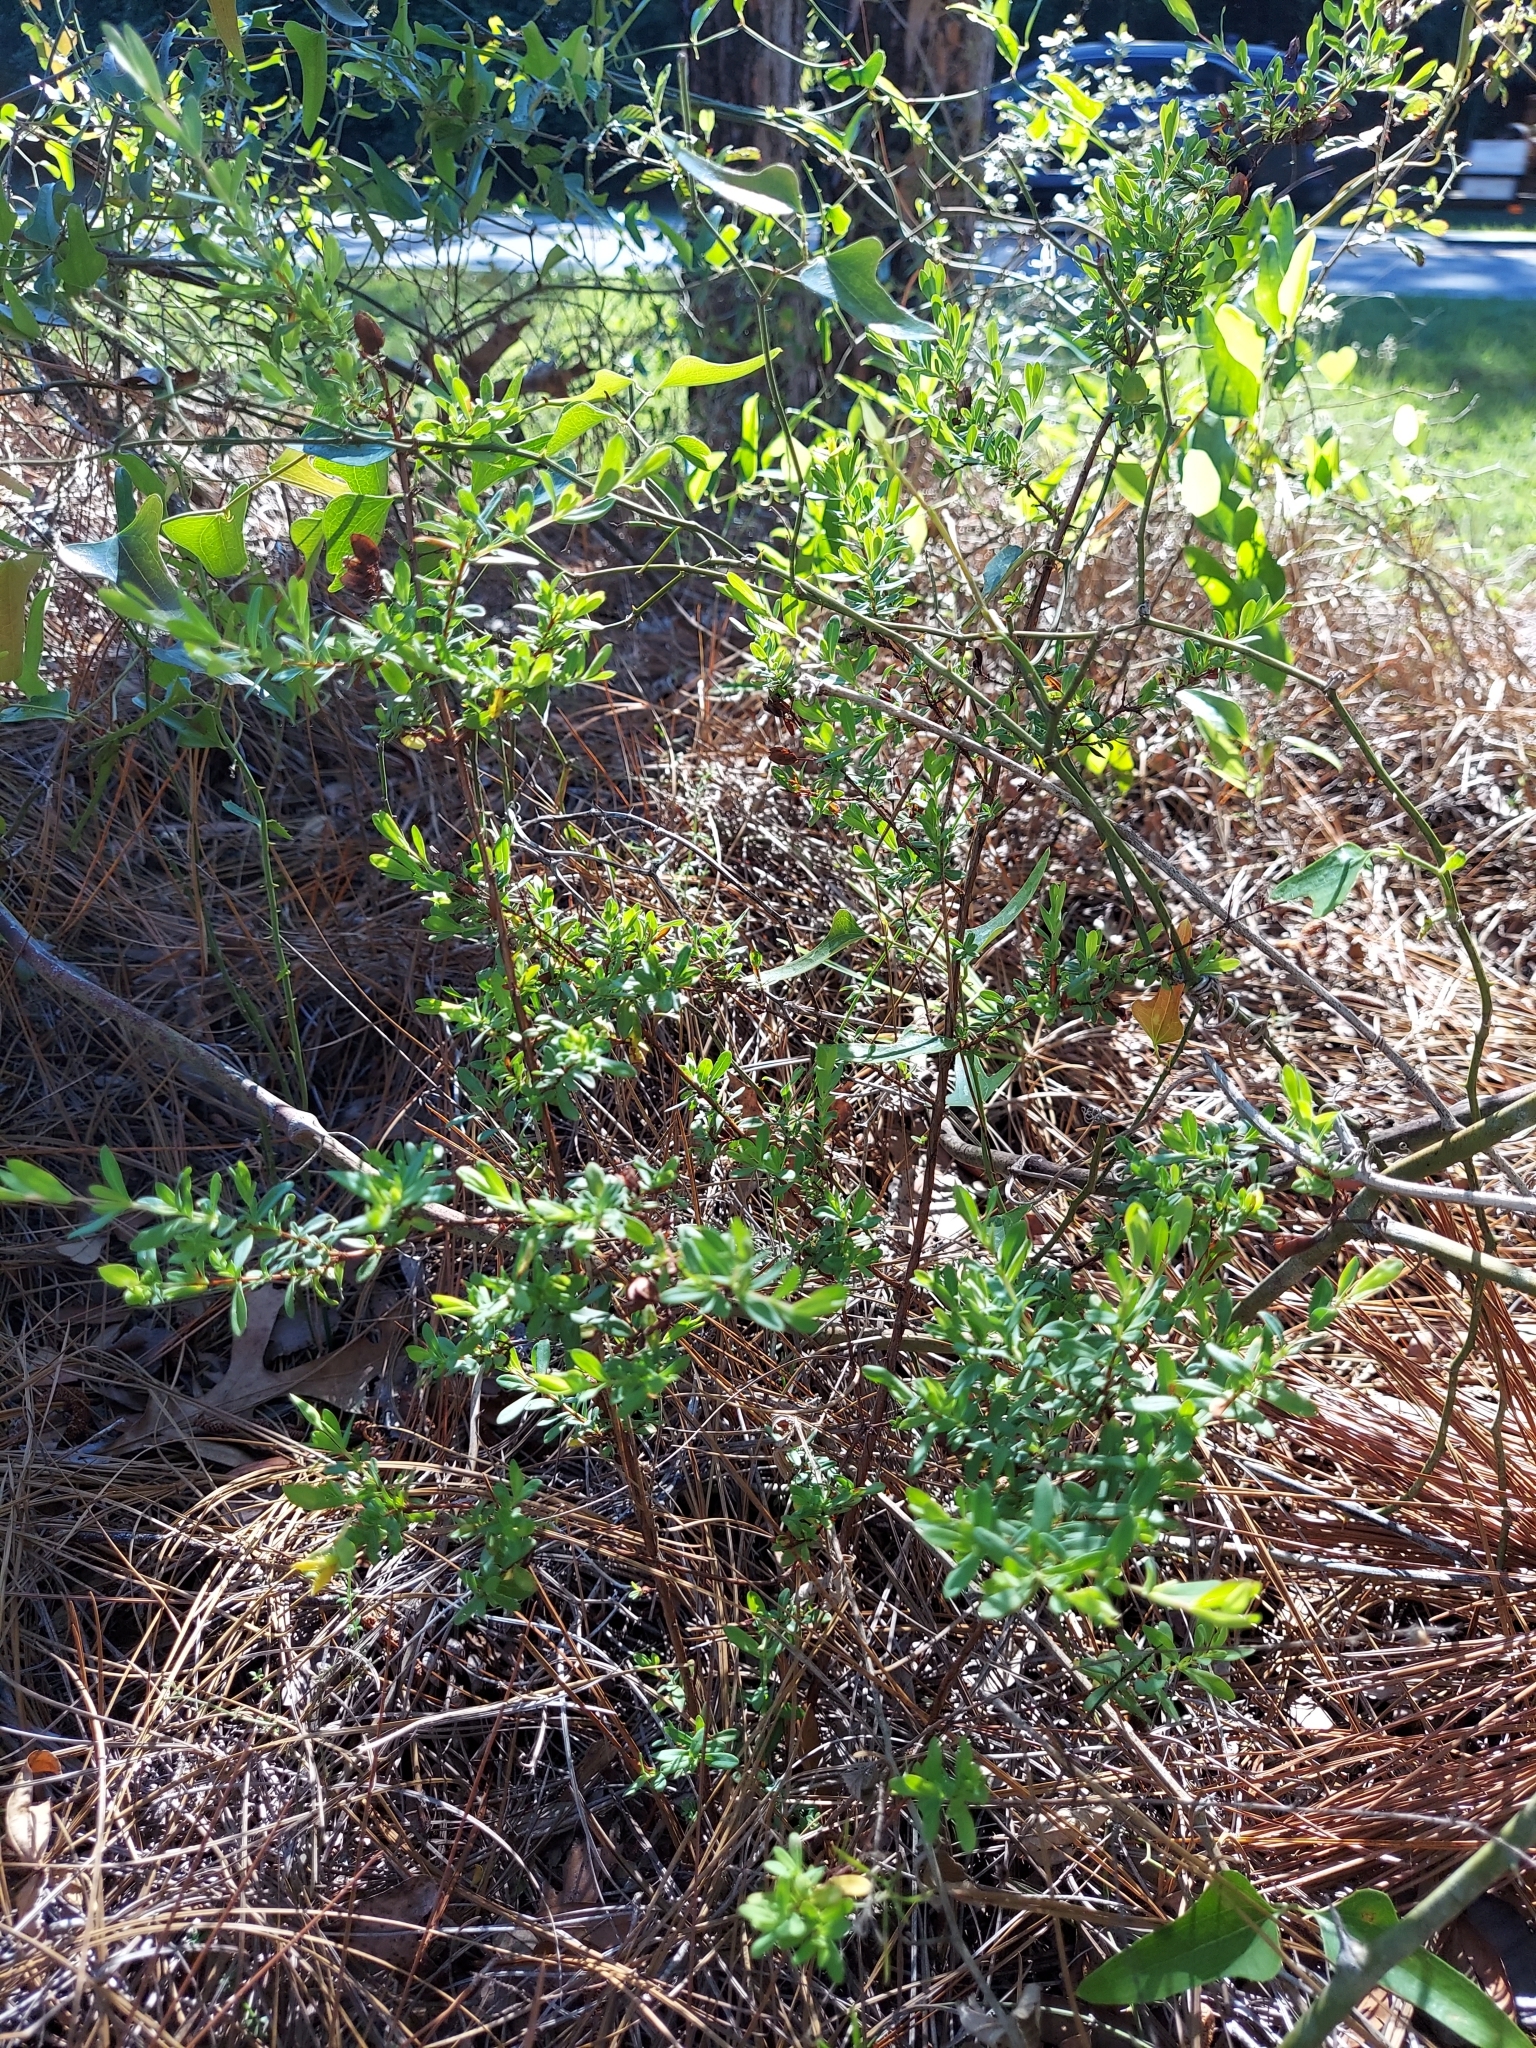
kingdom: Plantae
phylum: Tracheophyta
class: Magnoliopsida
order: Malpighiales
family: Hypericaceae
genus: Hypericum
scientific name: Hypericum hypericoides
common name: St. andrew's cross
